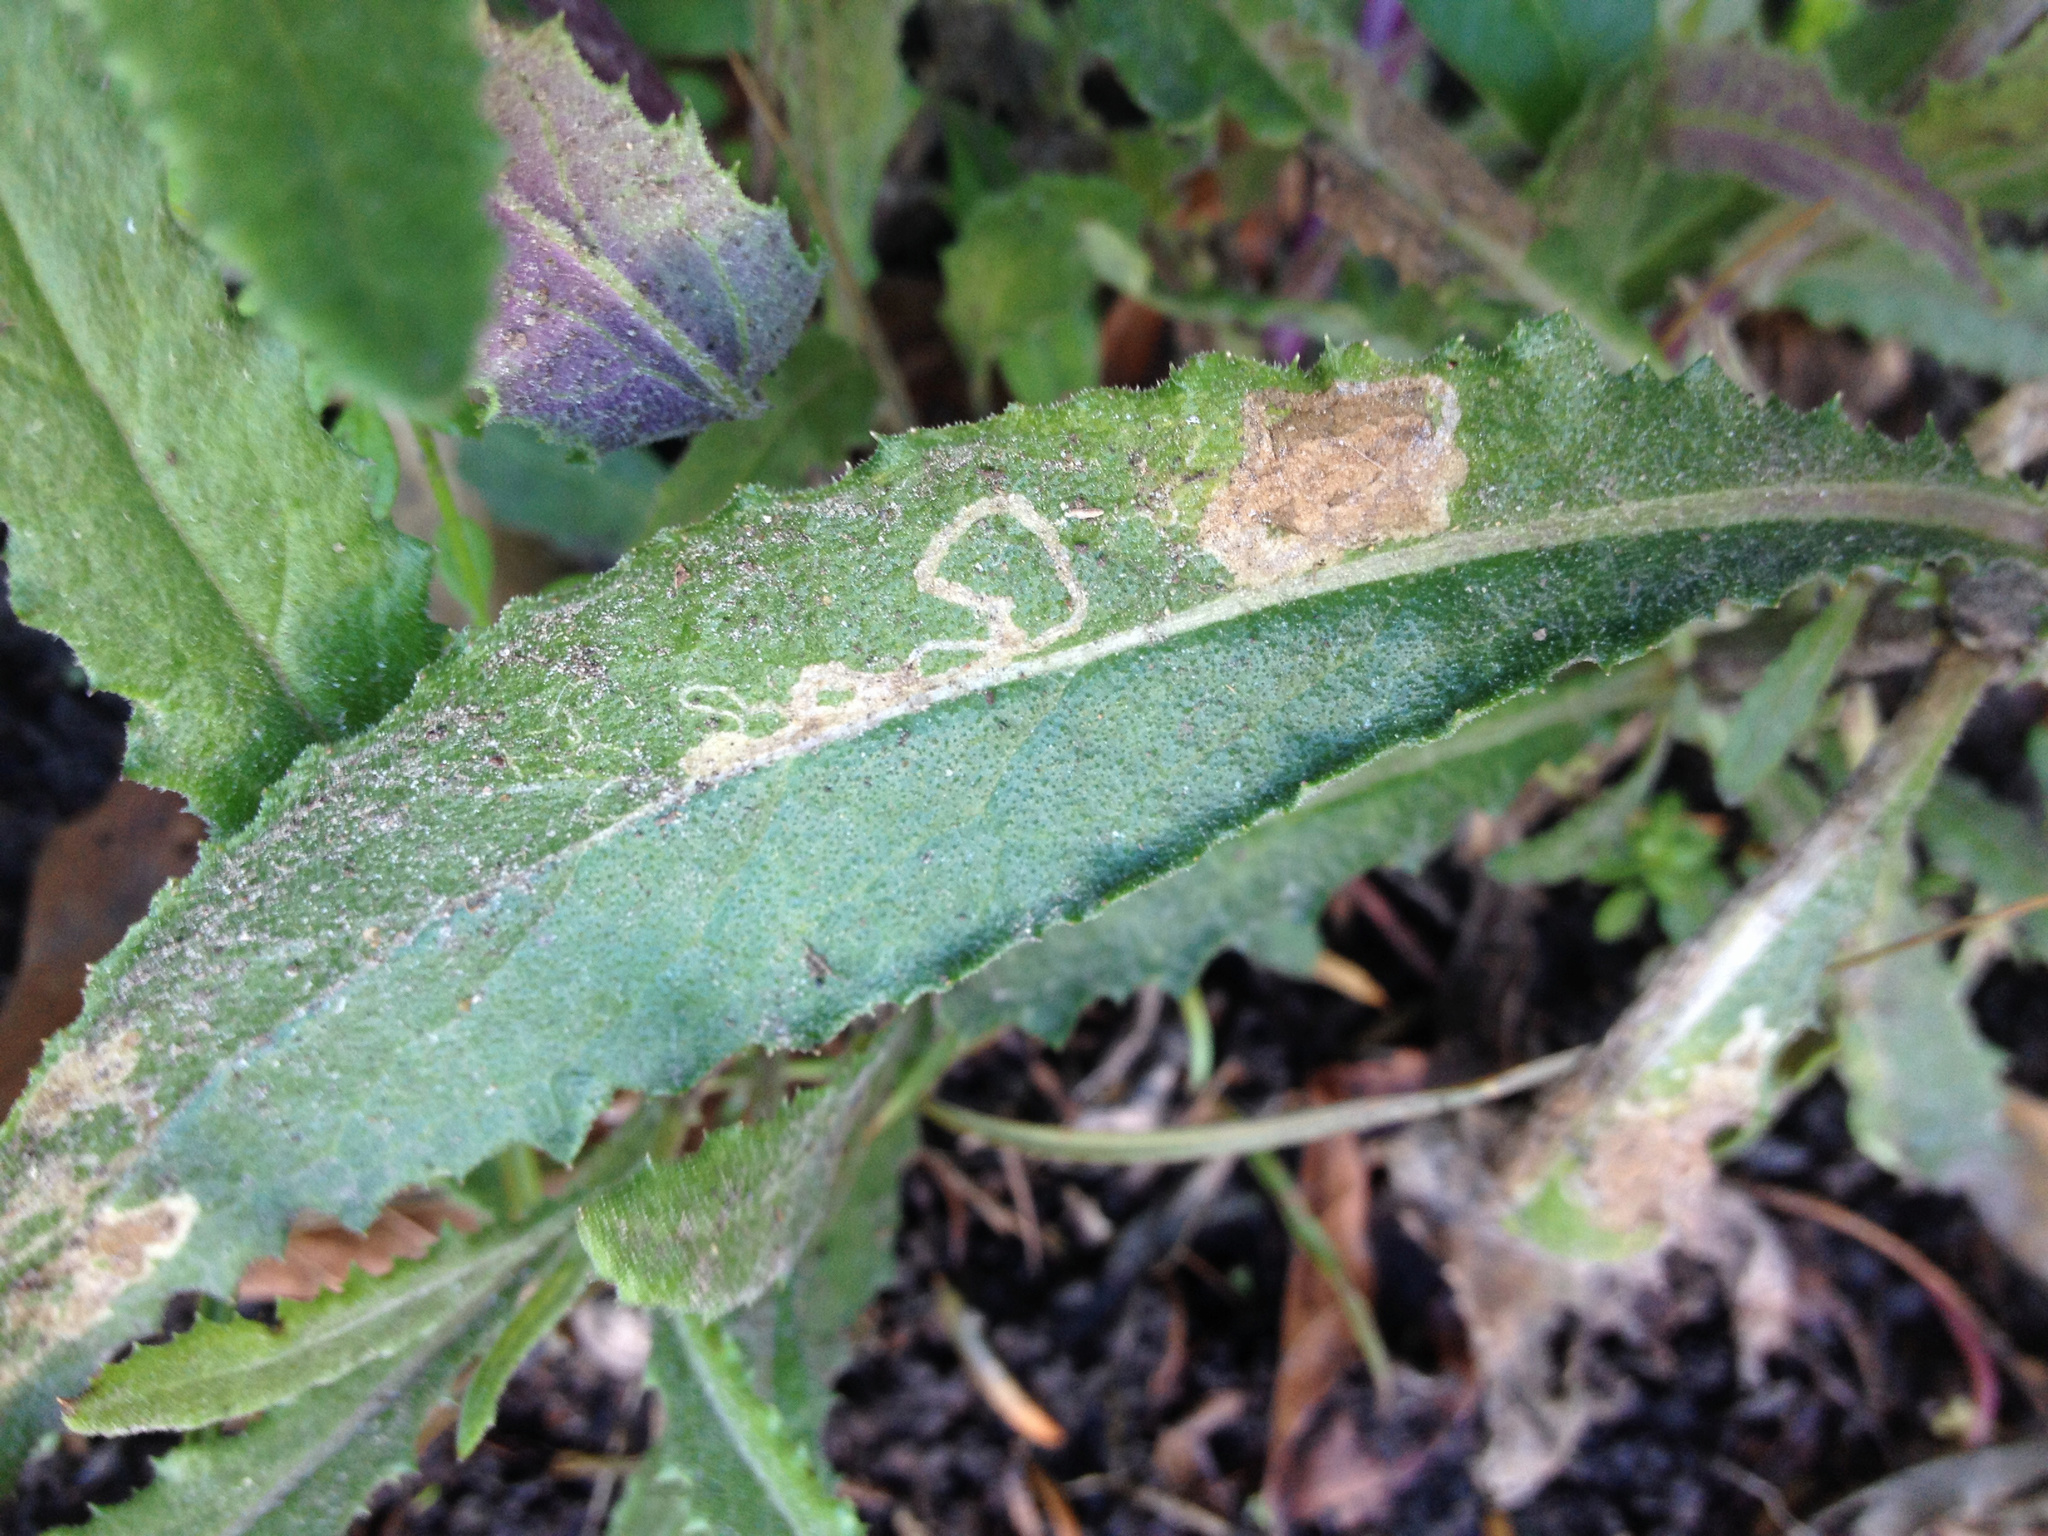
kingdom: Animalia
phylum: Arthropoda
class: Insecta
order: Lepidoptera
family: Nepticulidae
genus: Stigmella
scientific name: Stigmella ogygia
